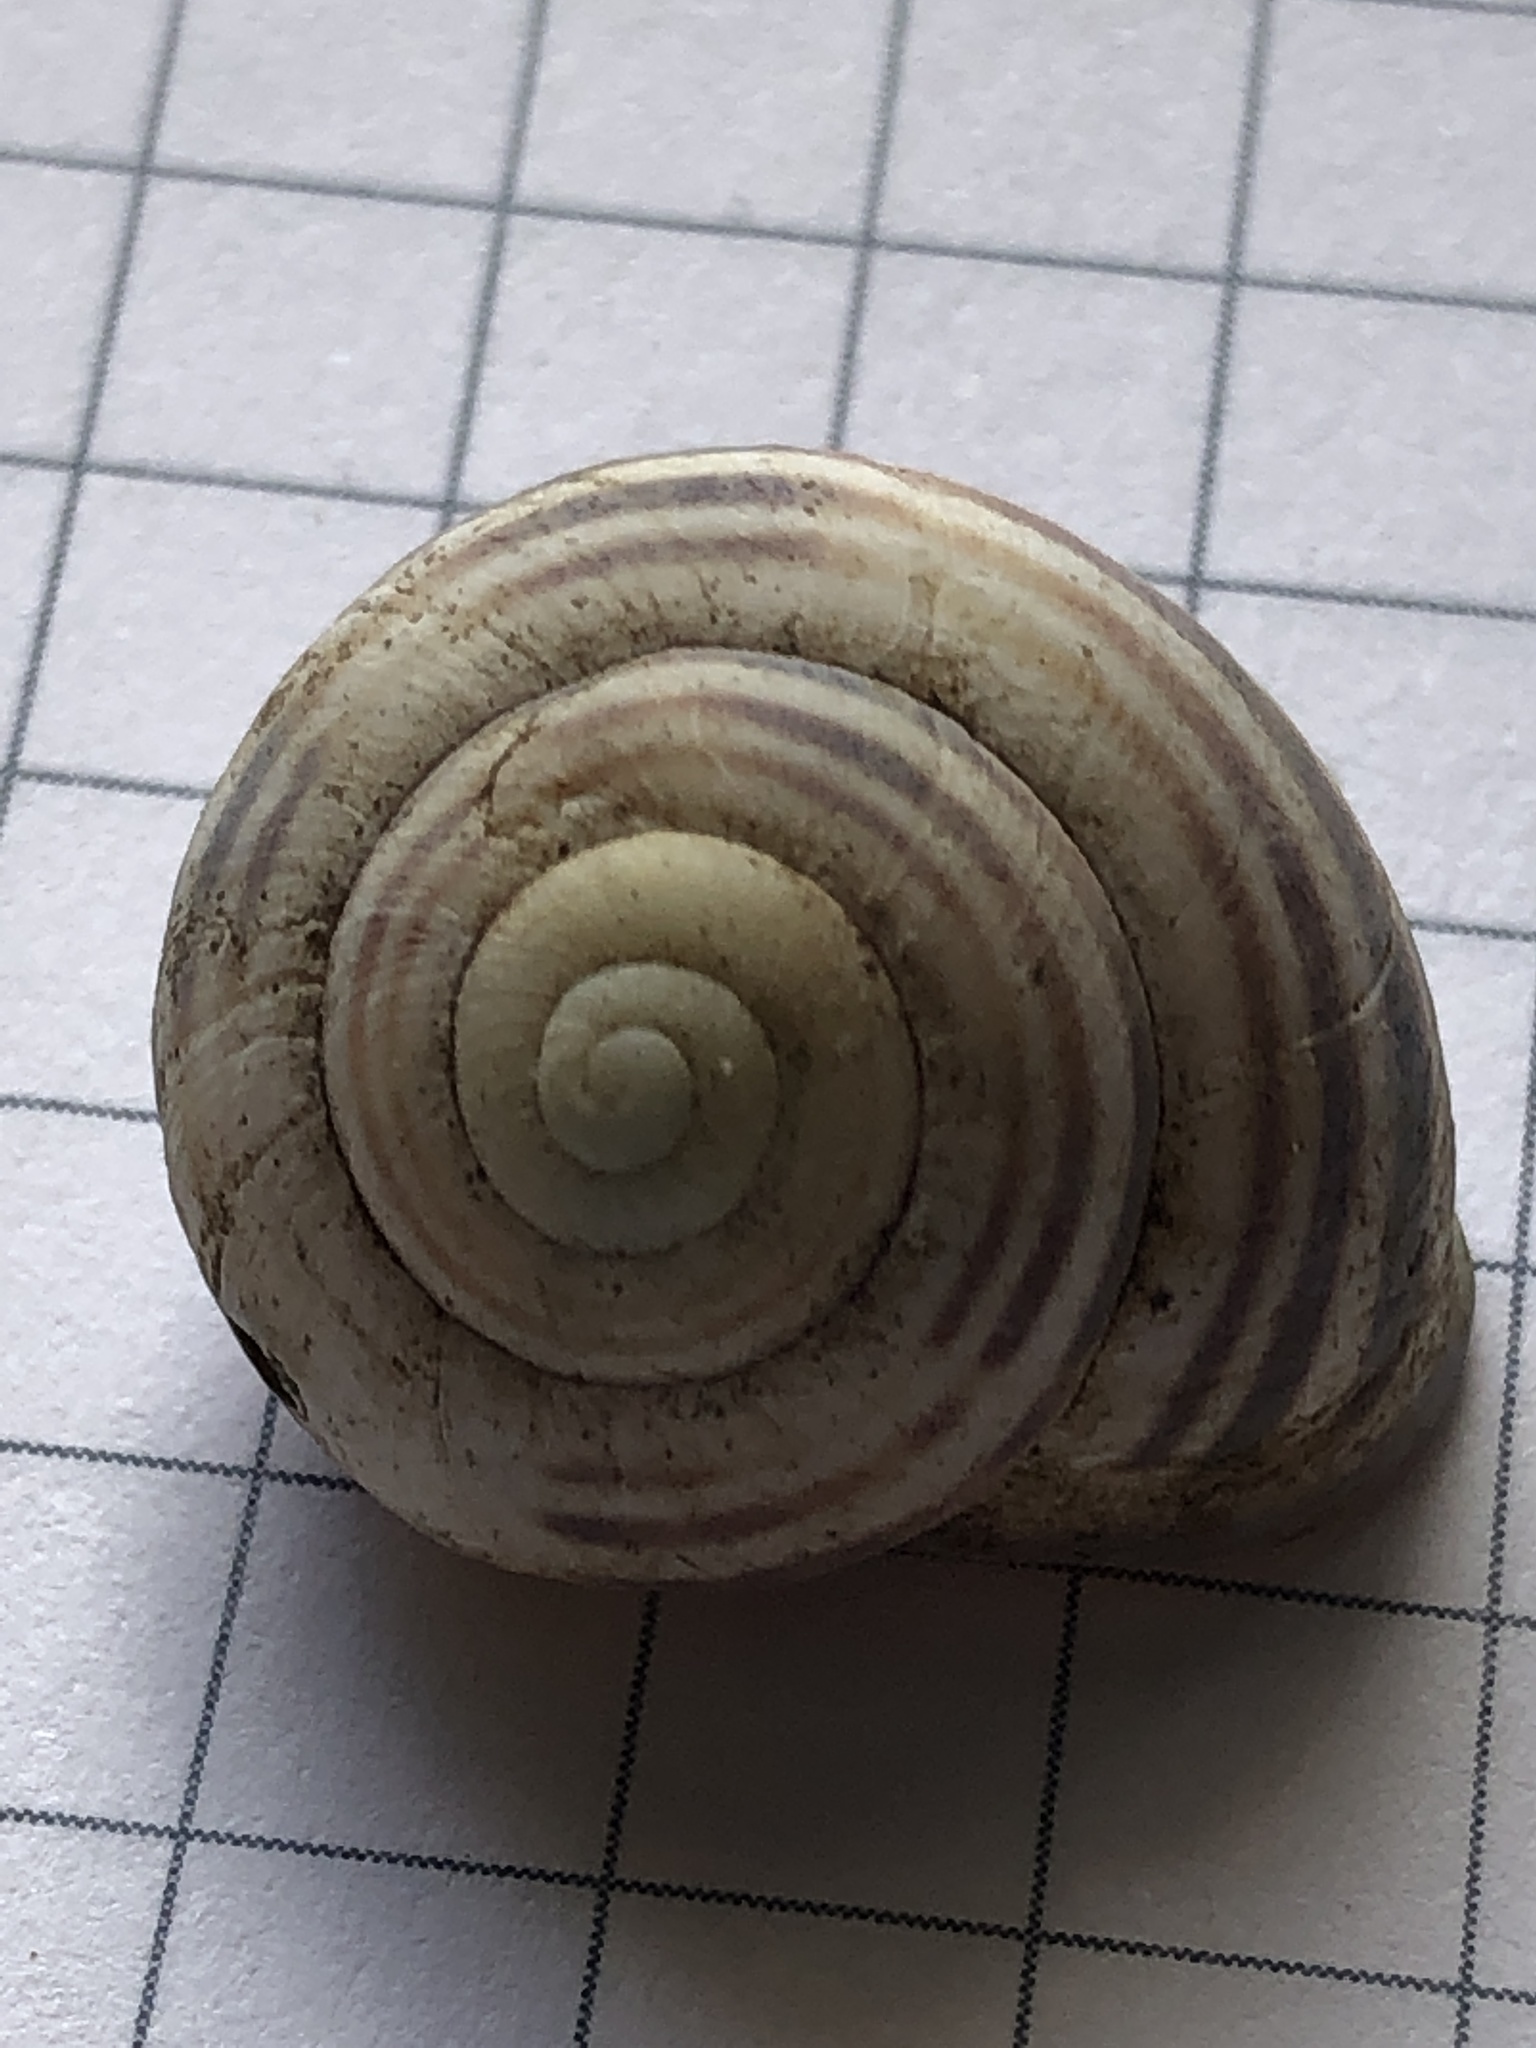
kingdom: Animalia
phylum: Mollusca
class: Gastropoda
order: Stylommatophora
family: Helicidae
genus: Cepaea
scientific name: Cepaea nemoralis
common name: Grovesnail
